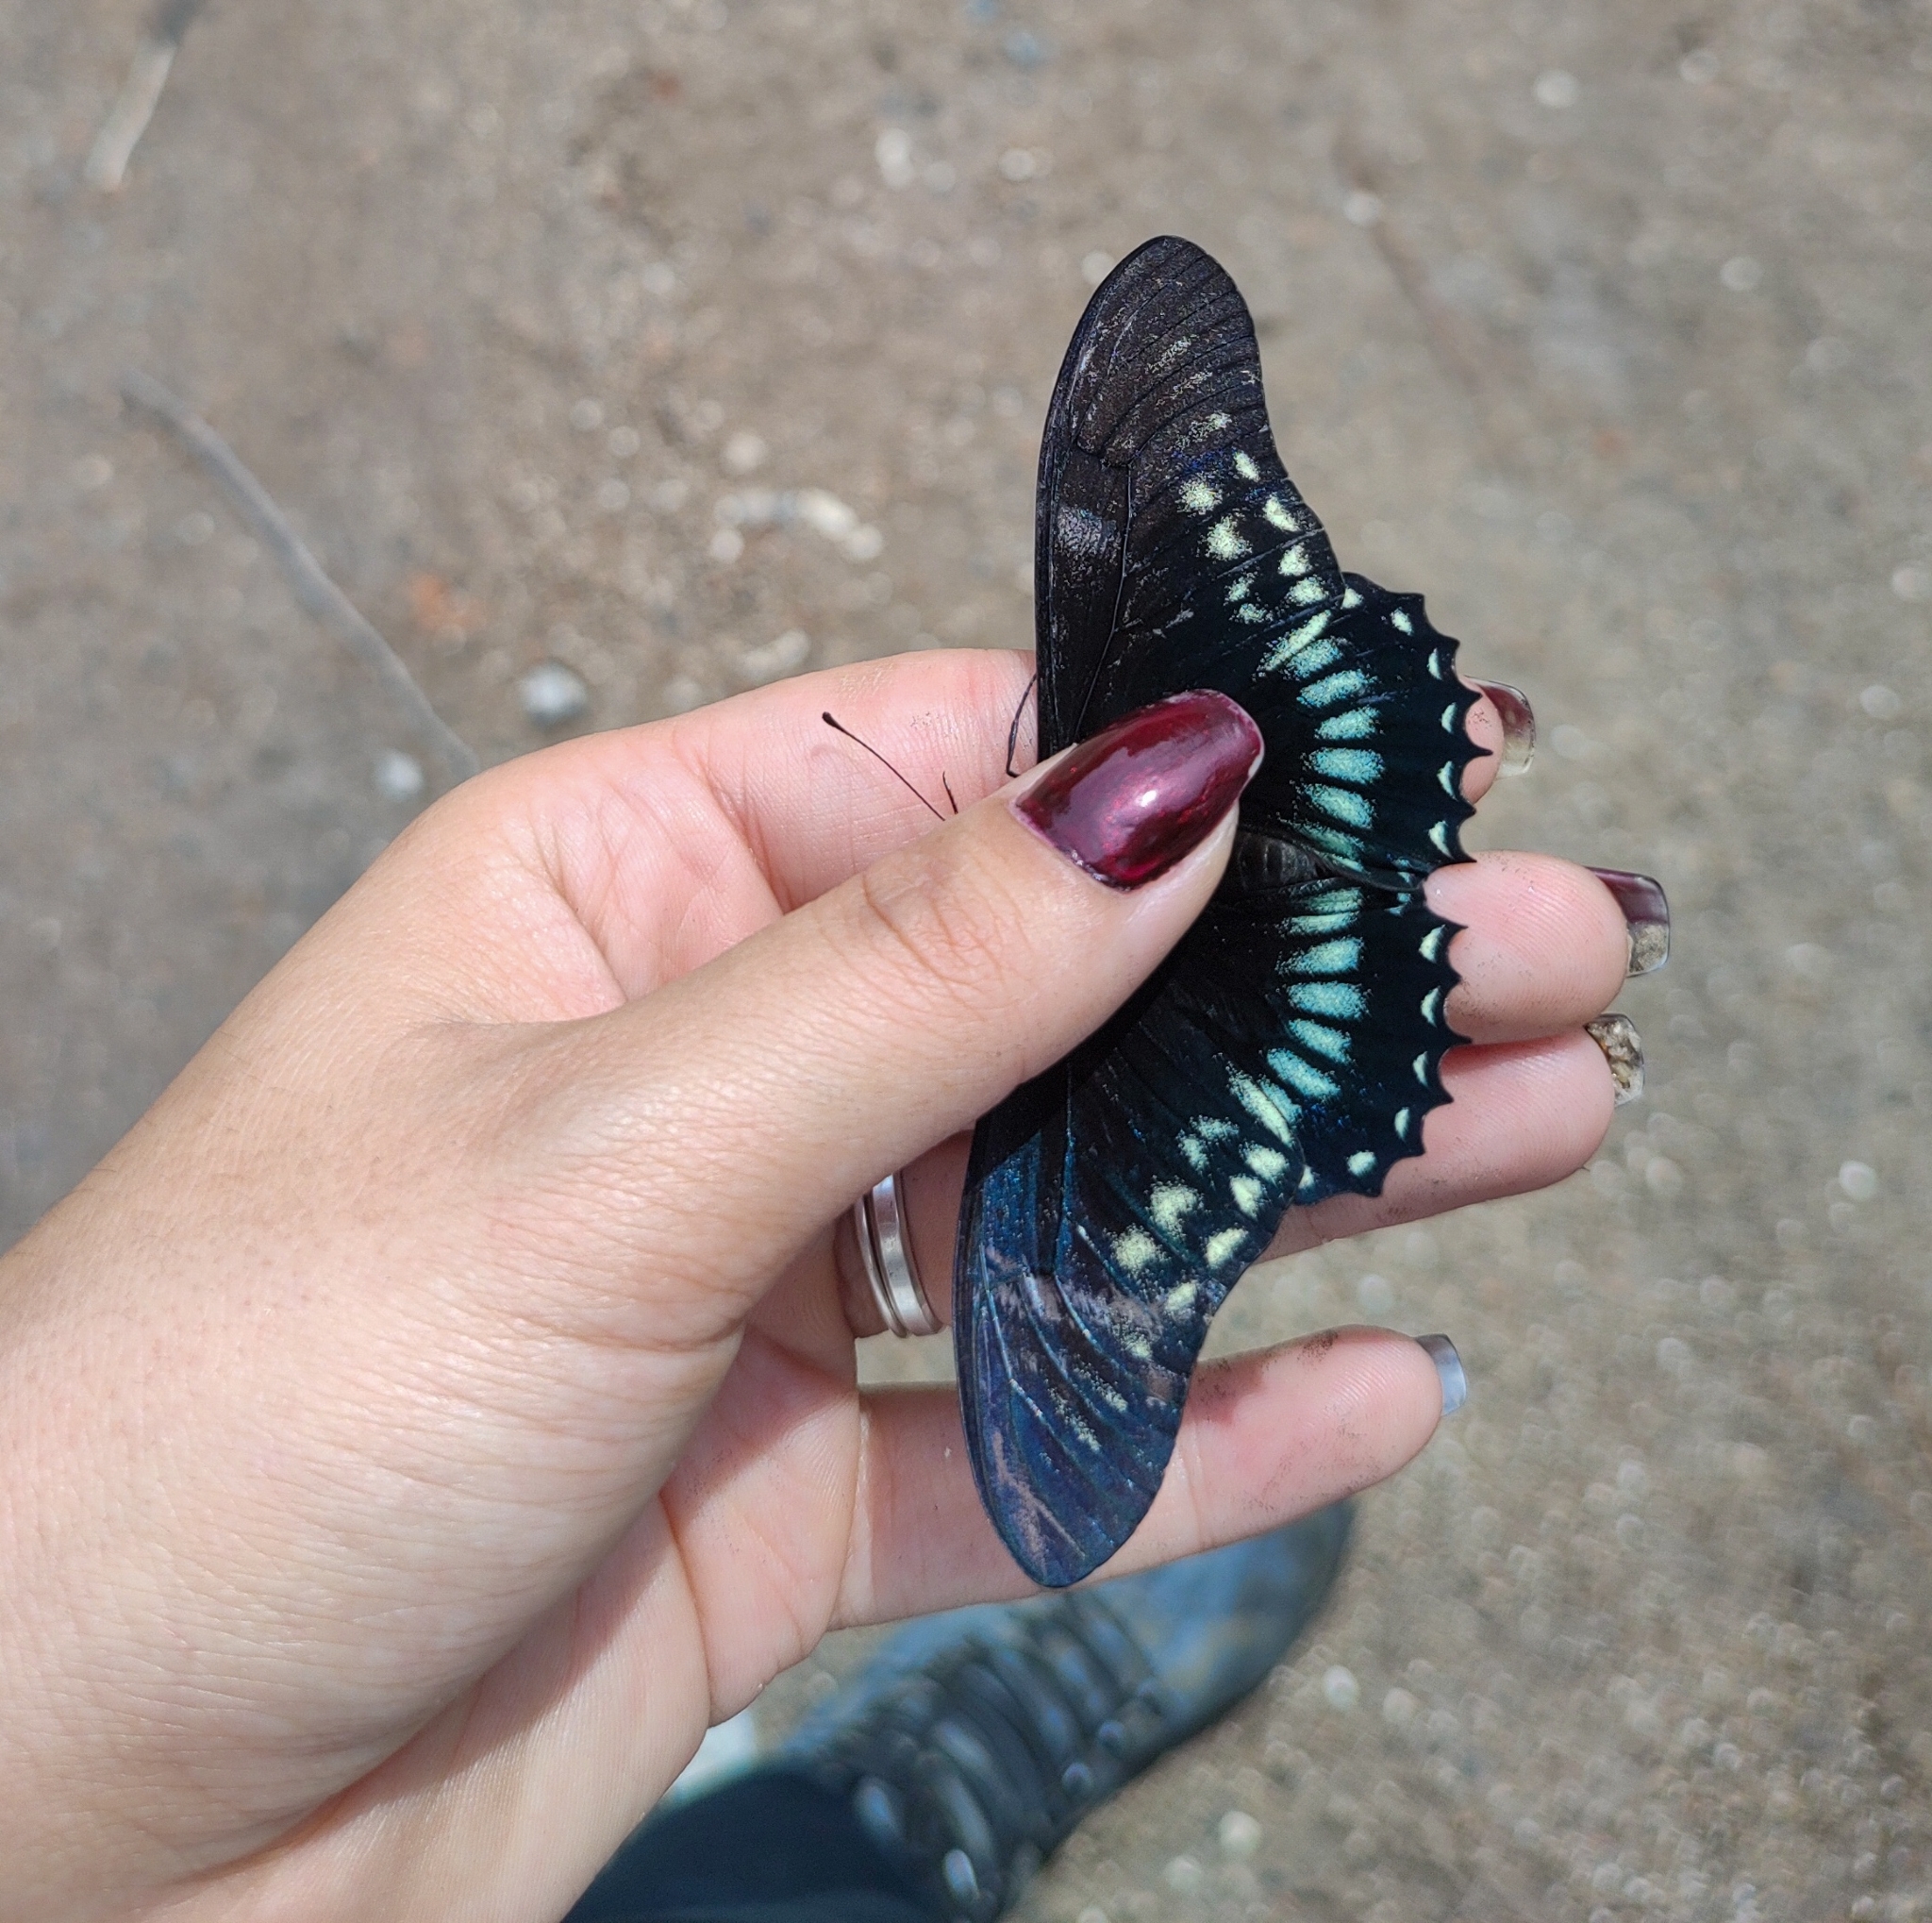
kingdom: Animalia
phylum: Arthropoda
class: Insecta
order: Lepidoptera
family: Papilionidae
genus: Mimoides
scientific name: Mimoides protodamas
